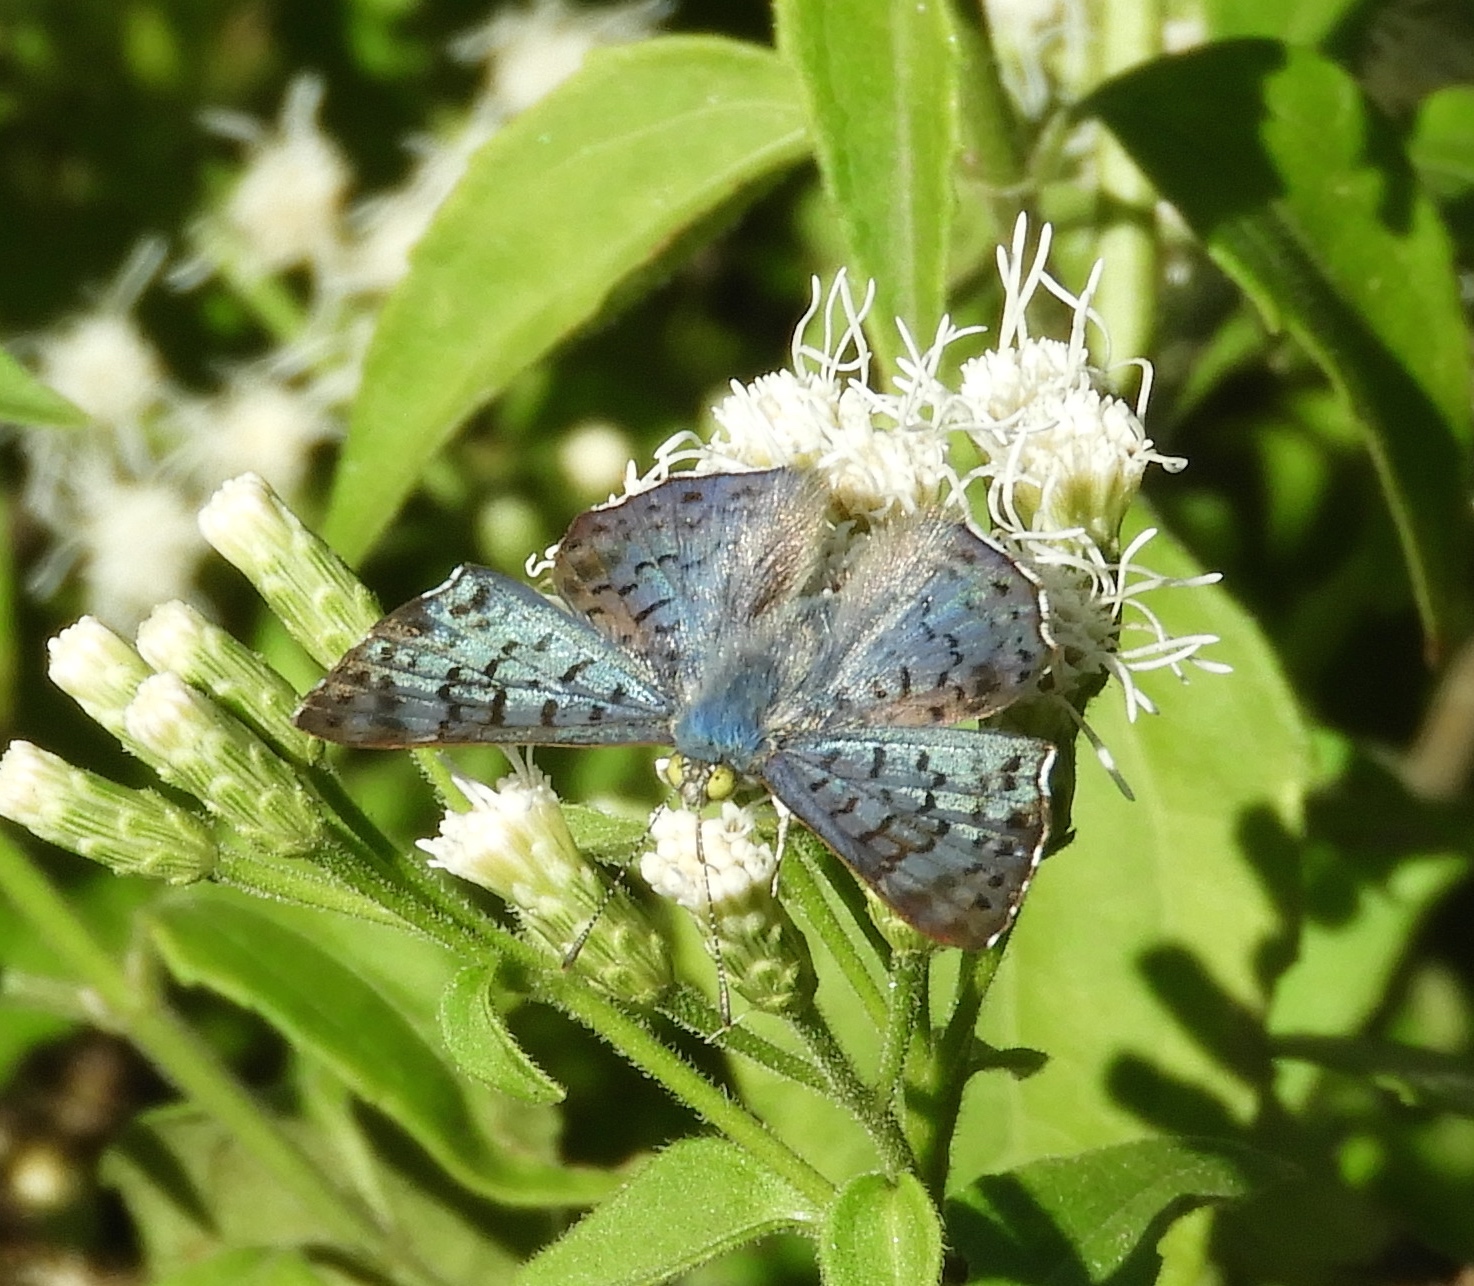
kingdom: Animalia
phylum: Arthropoda
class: Insecta
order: Lepidoptera
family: Riodinidae
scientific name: Riodinidae
